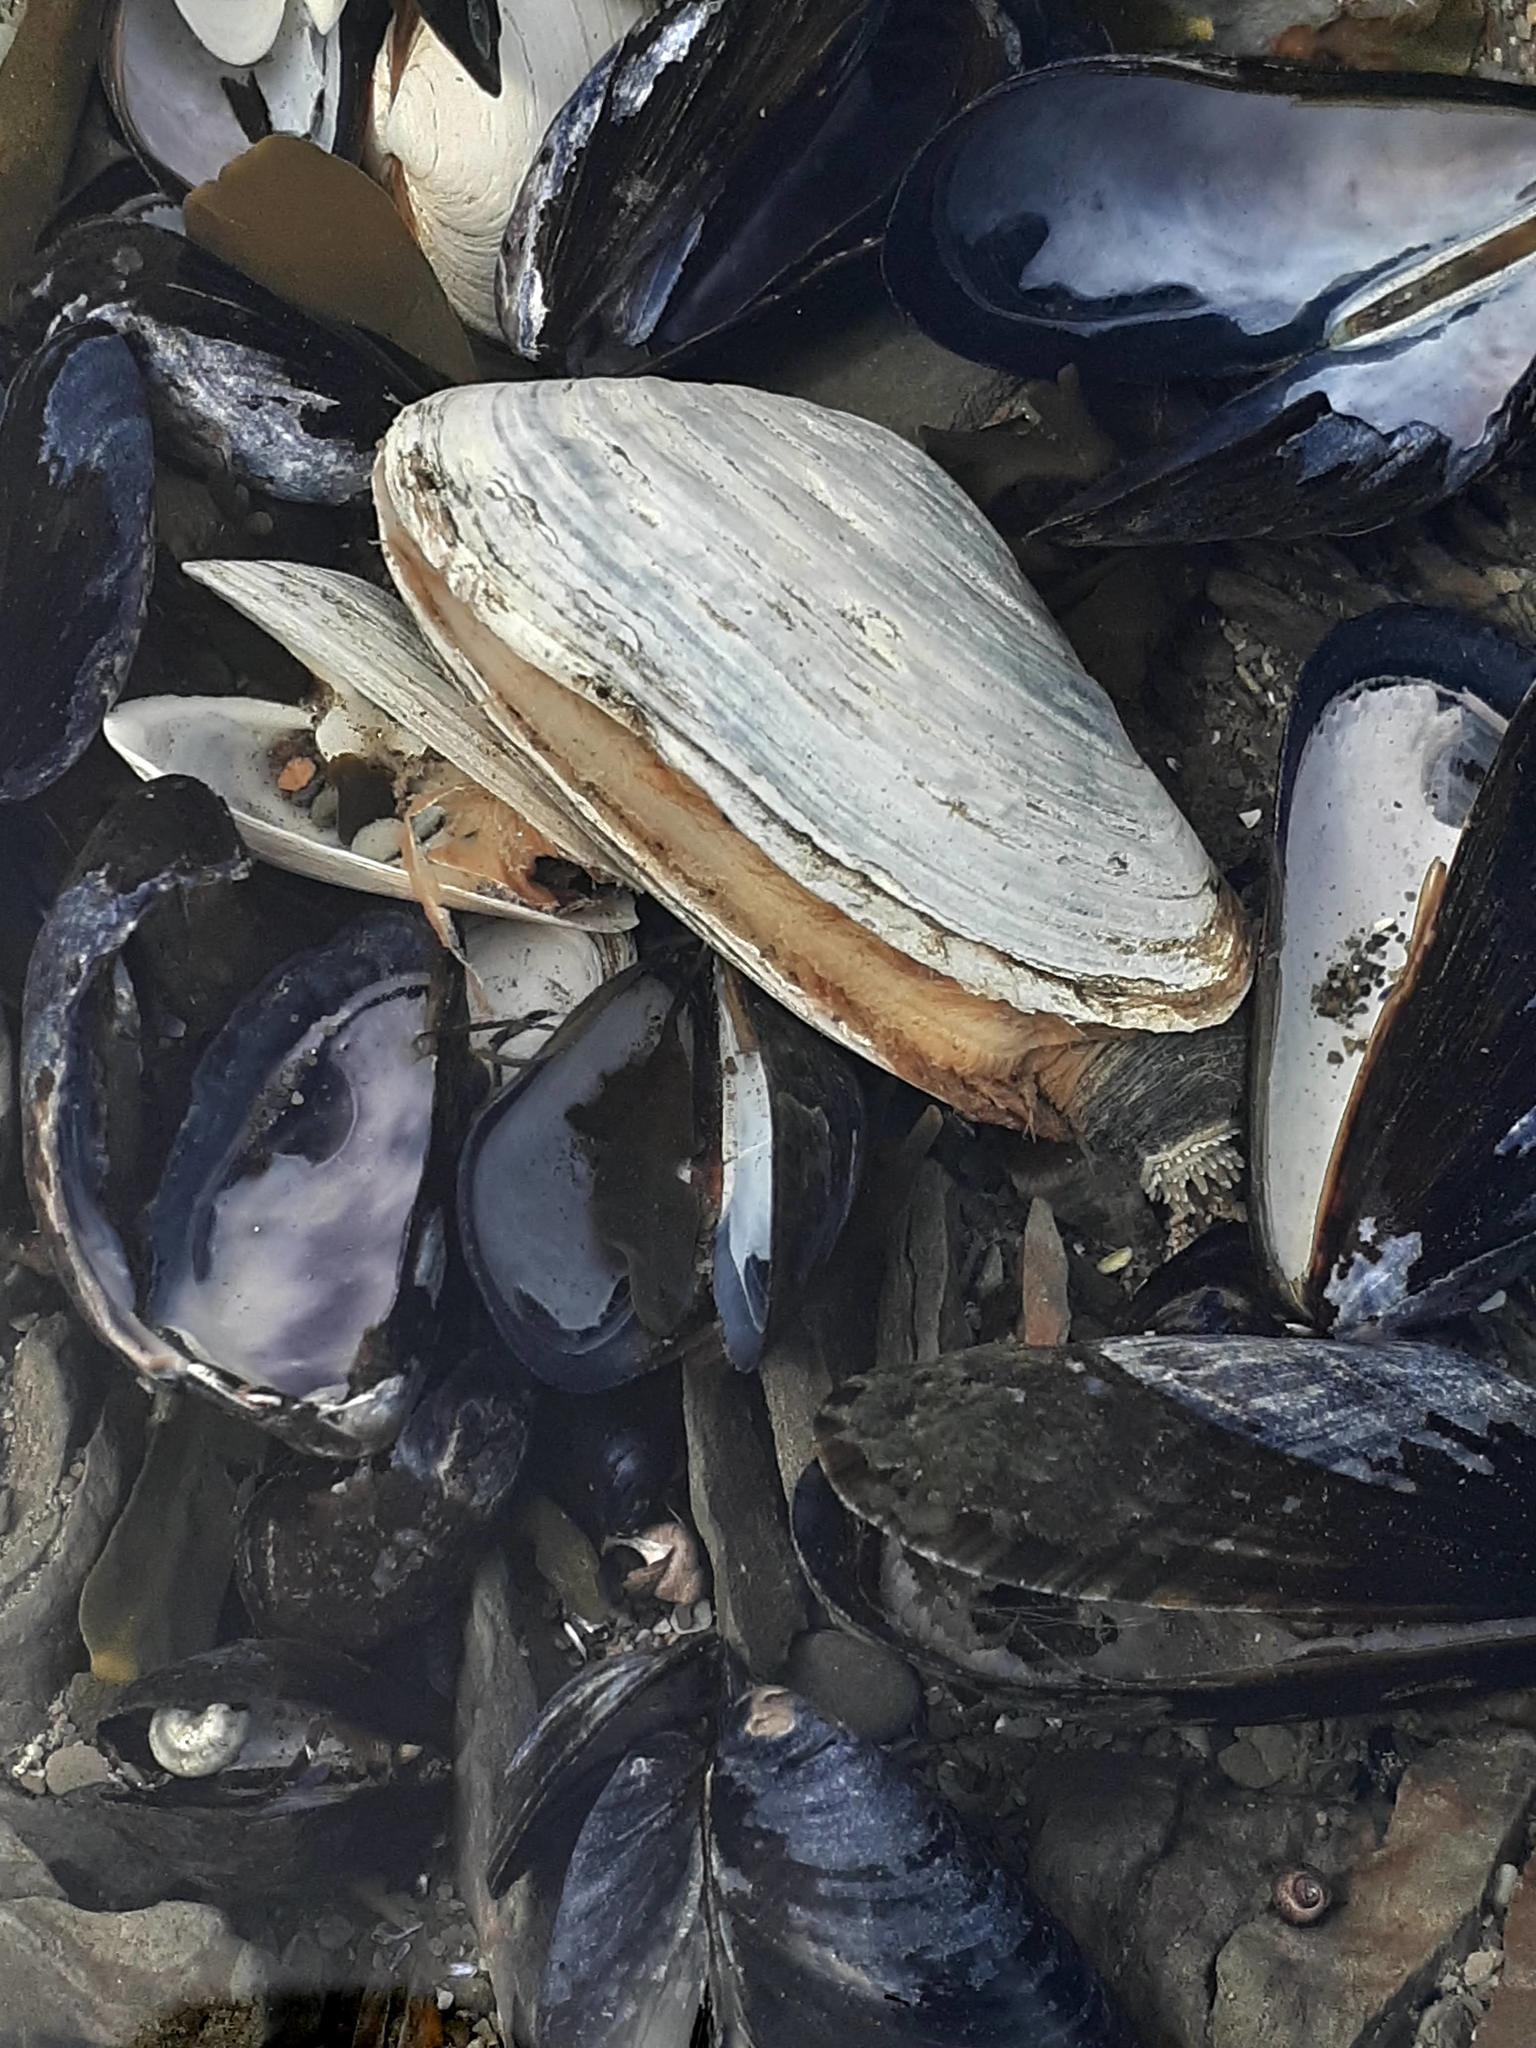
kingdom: Animalia
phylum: Mollusca
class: Bivalvia
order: Myida
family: Myidae
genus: Mya
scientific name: Mya arenaria
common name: Soft-shelled clam
